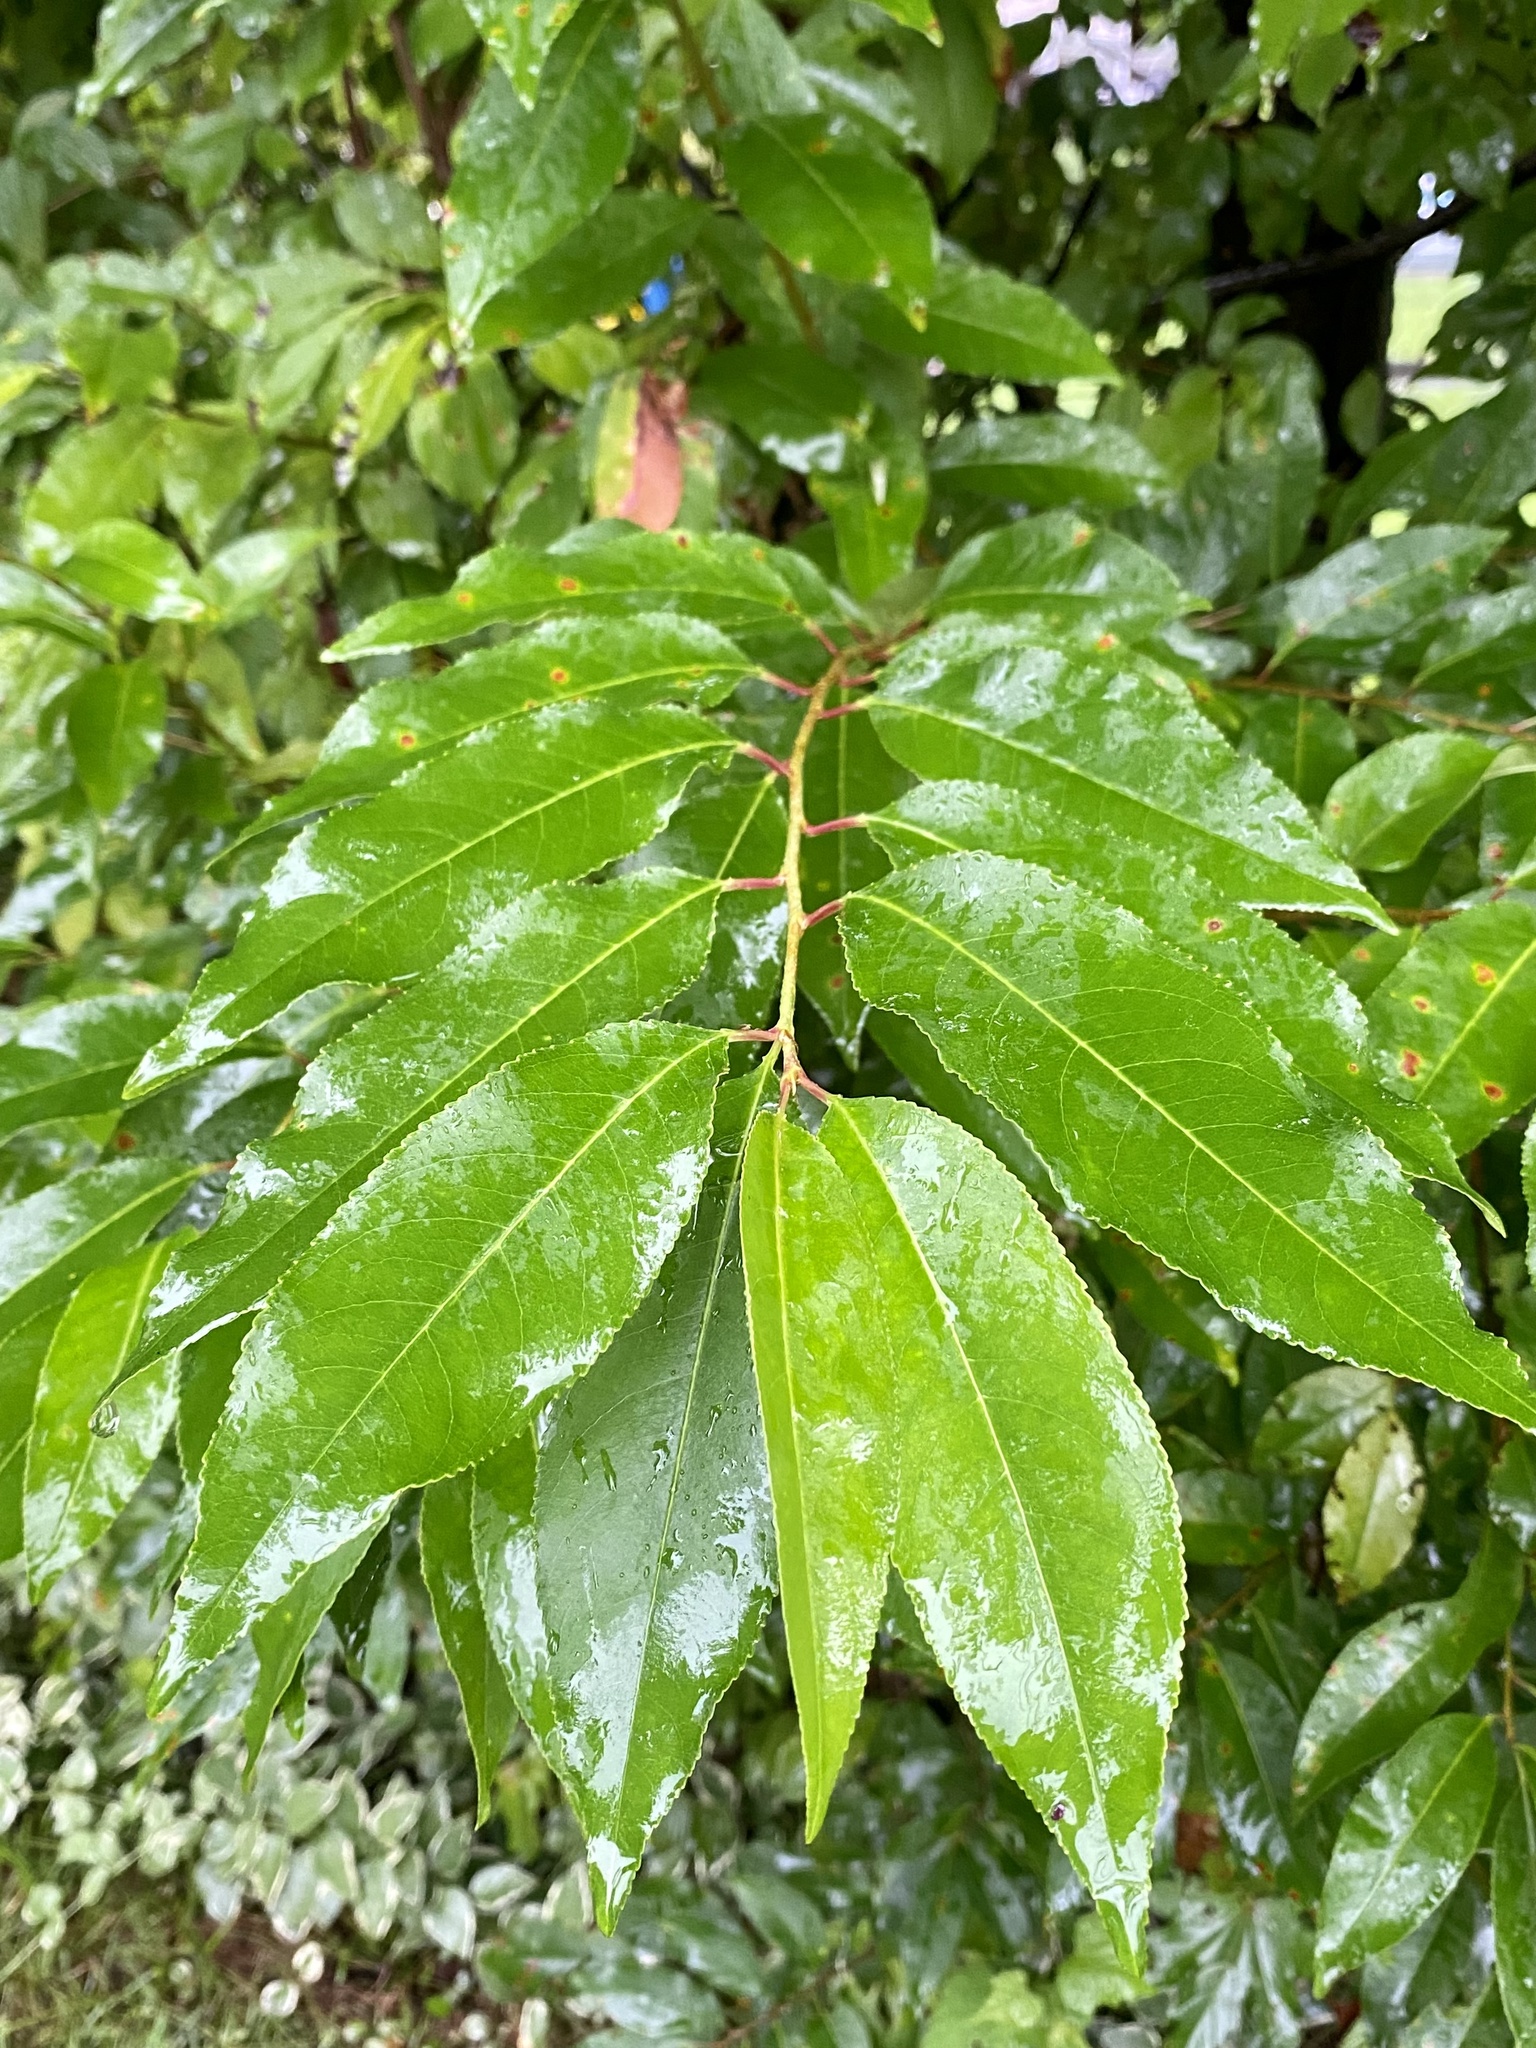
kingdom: Plantae
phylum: Tracheophyta
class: Magnoliopsida
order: Rosales
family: Rosaceae
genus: Prunus
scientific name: Prunus serotina
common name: Black cherry
